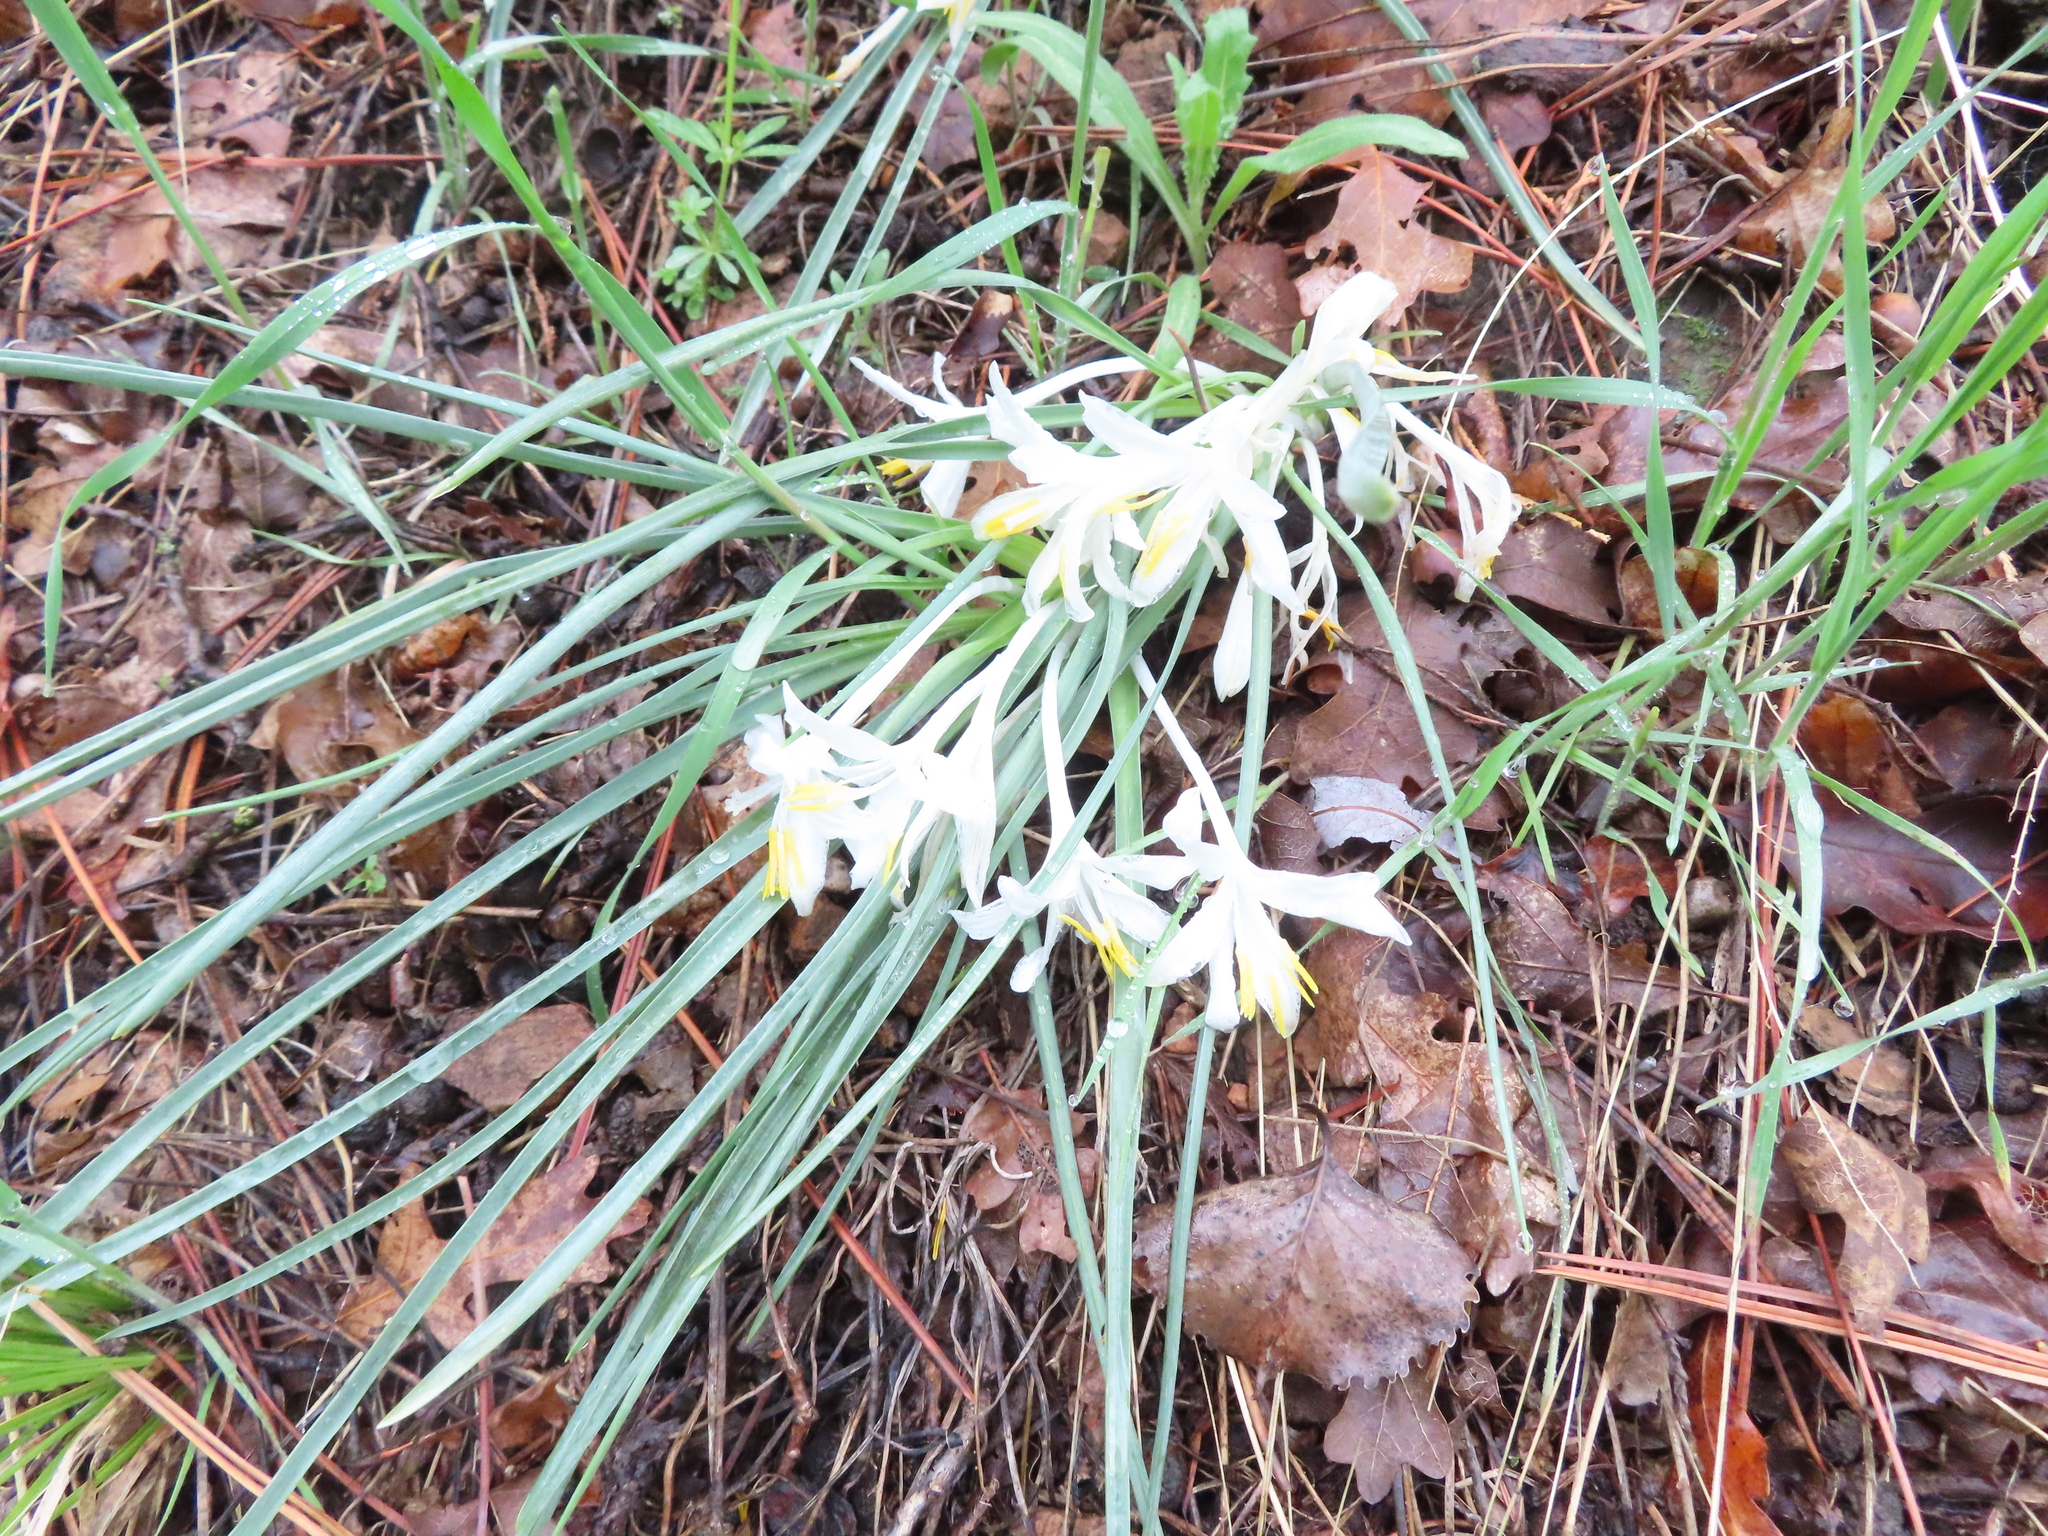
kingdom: Plantae
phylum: Tracheophyta
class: Liliopsida
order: Asparagales
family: Asparagaceae
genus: Leucocrinum
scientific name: Leucocrinum montanum
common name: Mountain-lily
